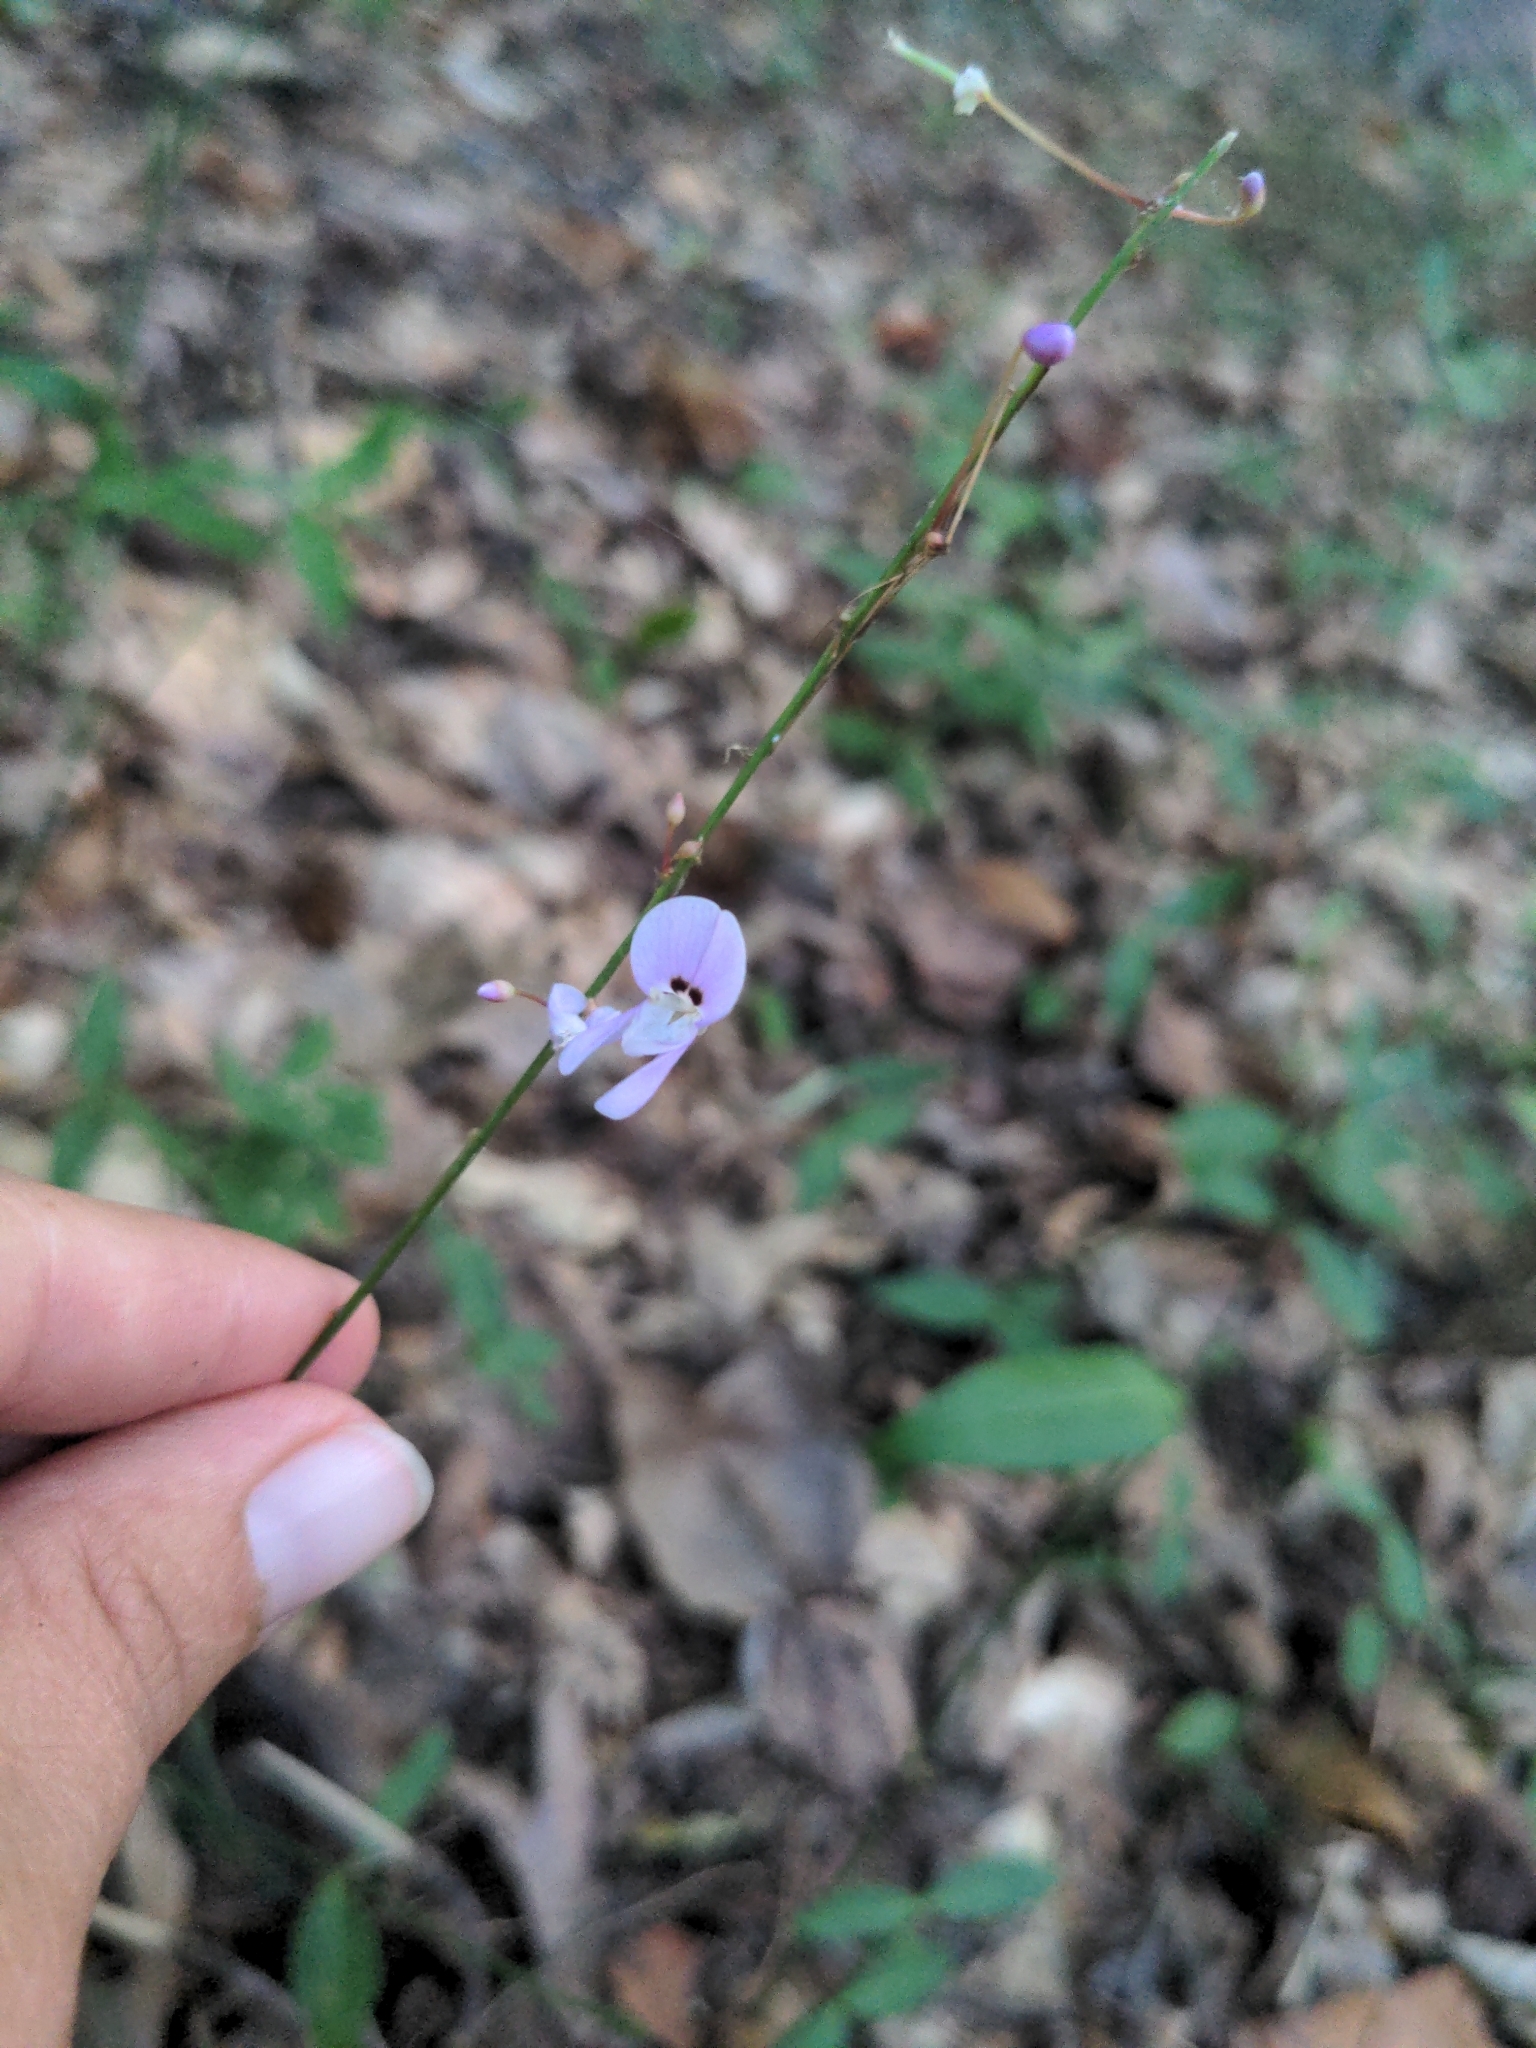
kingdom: Plantae
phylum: Tracheophyta
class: Magnoliopsida
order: Fabales
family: Fabaceae
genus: Hylodesmum
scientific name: Hylodesmum nudiflorum
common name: Bare-stemmed tick-trefoil
